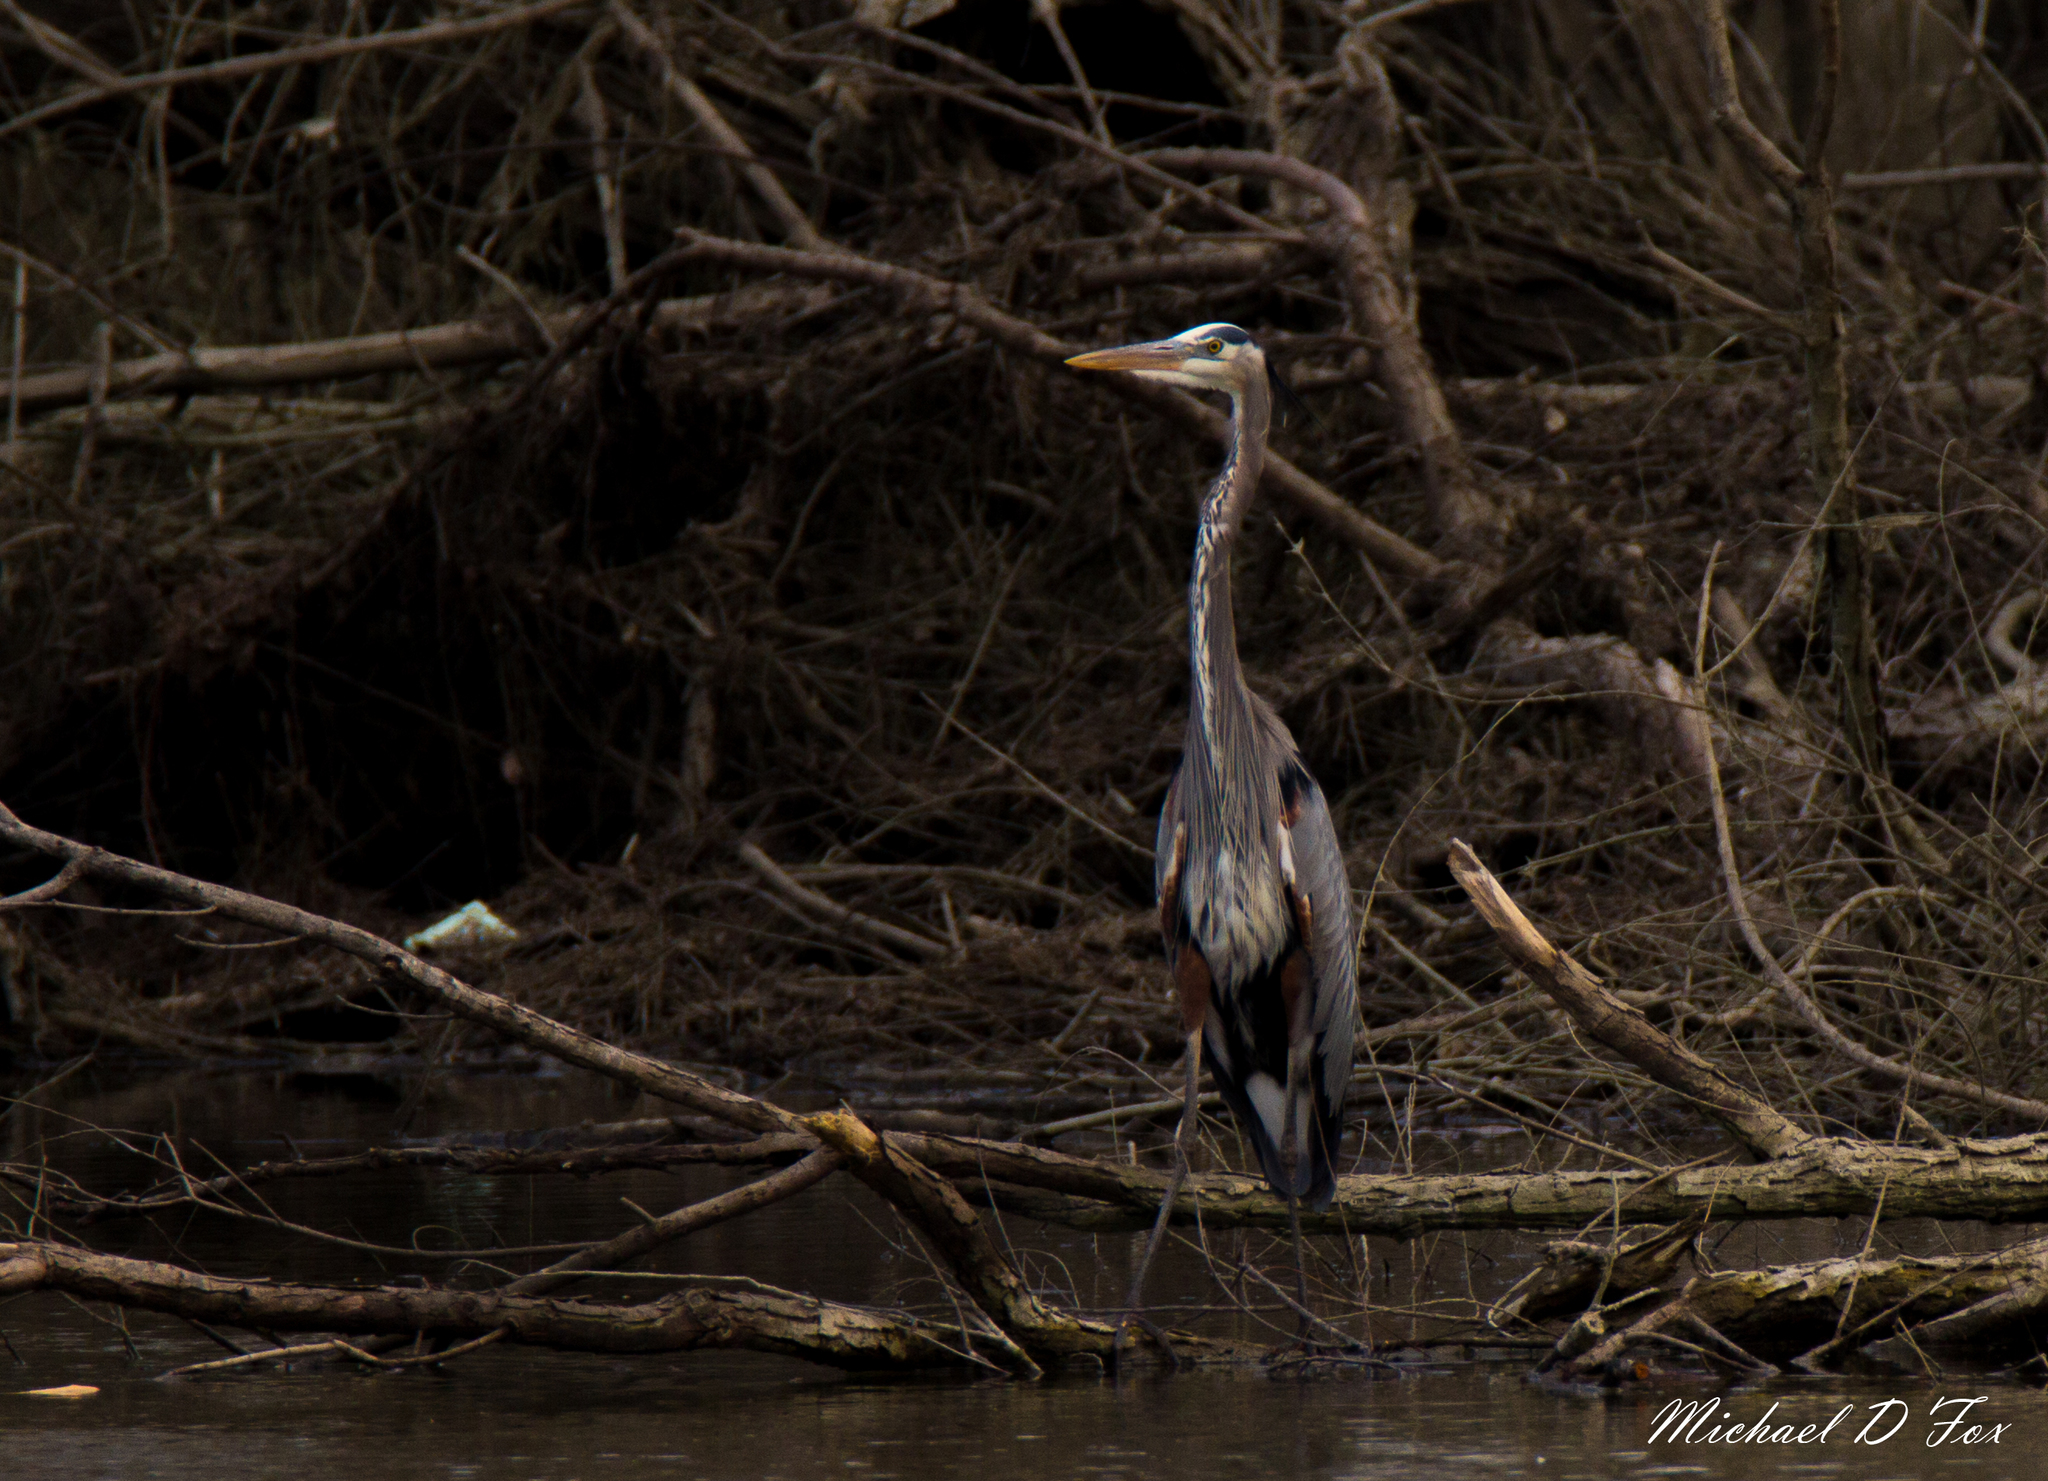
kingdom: Animalia
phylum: Chordata
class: Aves
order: Pelecaniformes
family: Ardeidae
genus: Ardea
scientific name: Ardea herodias
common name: Great blue heron
